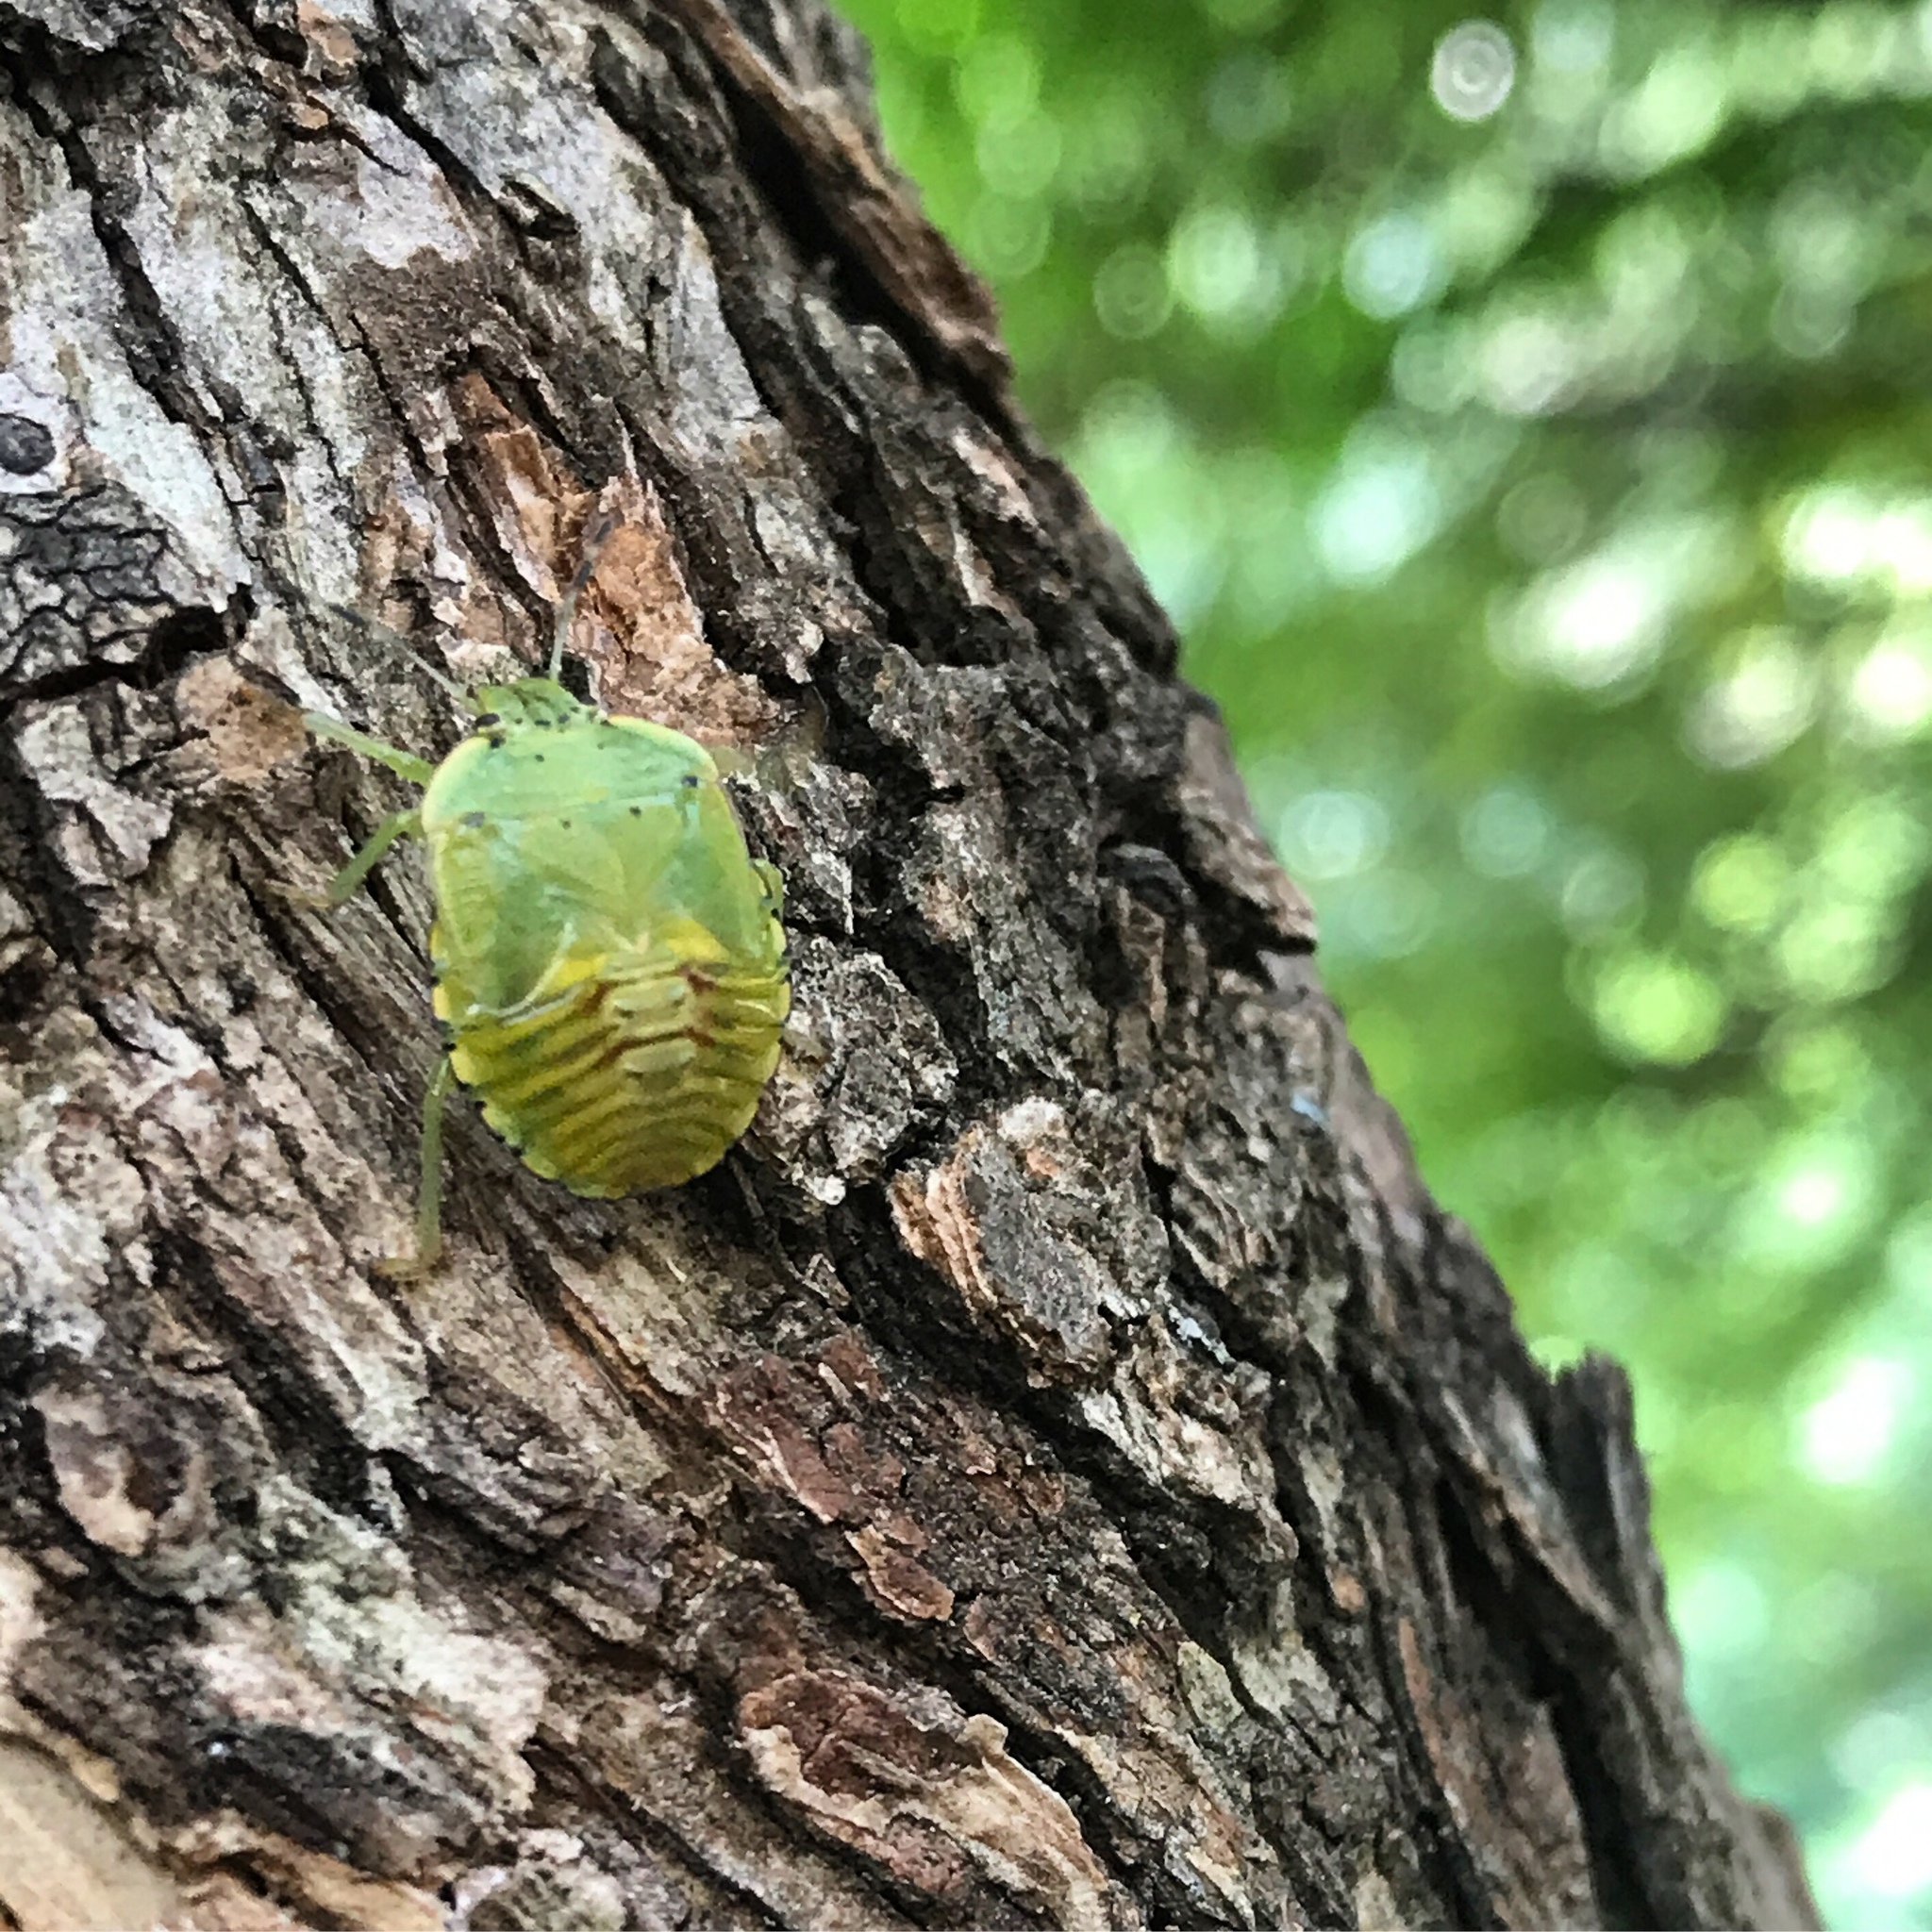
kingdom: Animalia
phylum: Arthropoda
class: Insecta
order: Hemiptera
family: Pentatomidae
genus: Chinavia
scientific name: Chinavia hilaris
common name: Green stink bug
